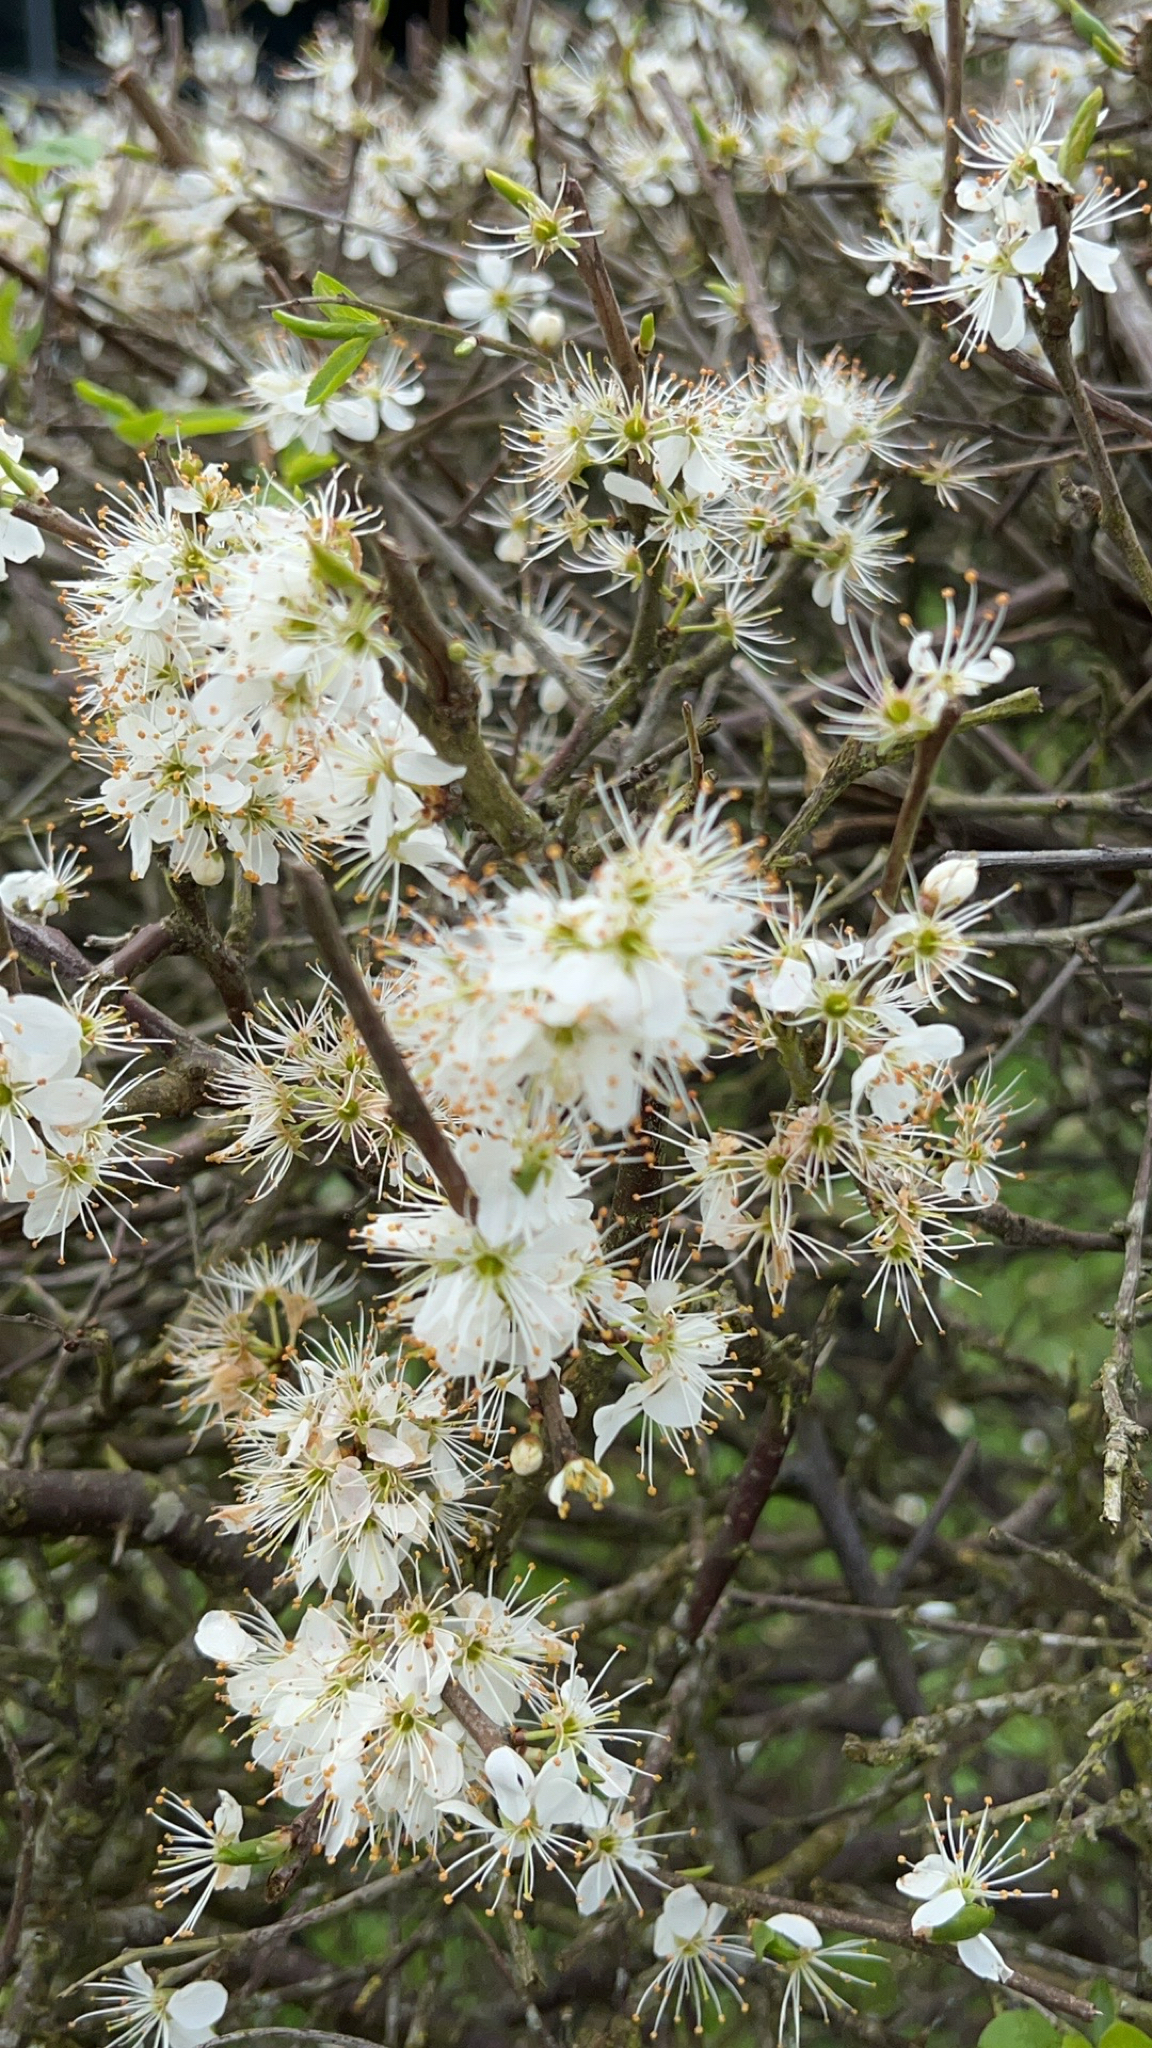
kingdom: Plantae
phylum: Tracheophyta
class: Magnoliopsida
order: Rosales
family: Rosaceae
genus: Prunus
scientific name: Prunus spinosa
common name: Blackthorn
